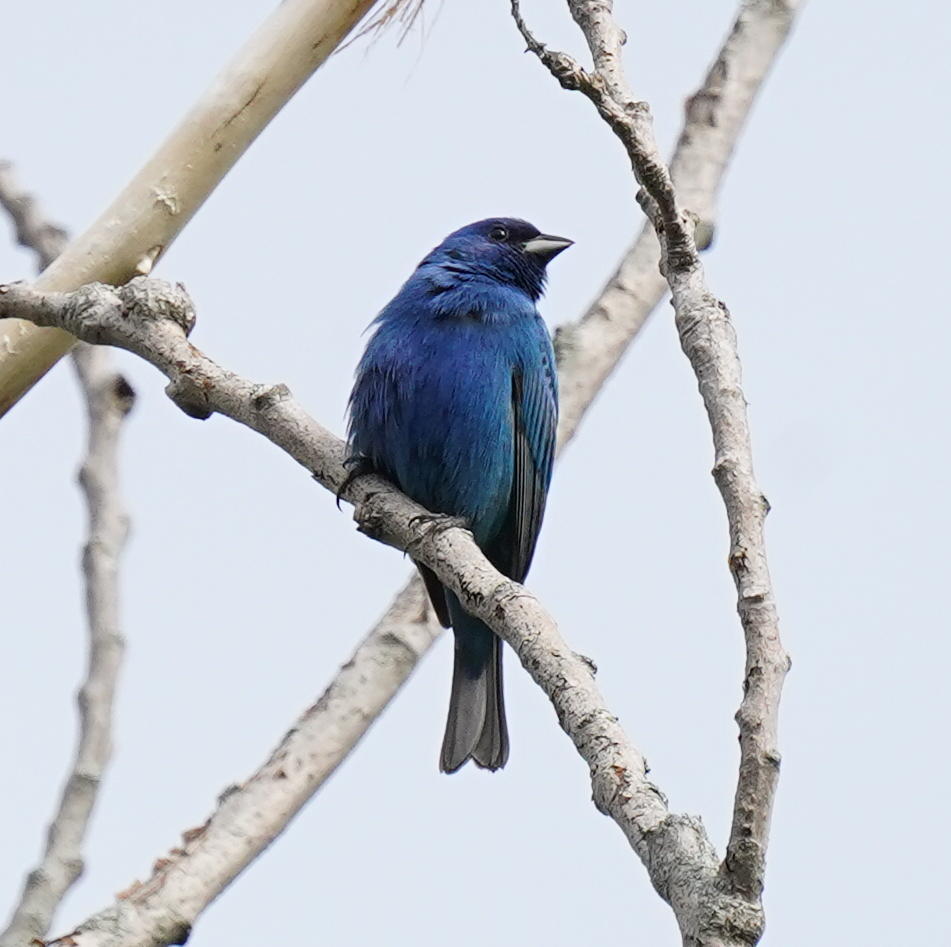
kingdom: Animalia
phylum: Chordata
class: Aves
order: Passeriformes
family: Cardinalidae
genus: Passerina
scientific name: Passerina cyanea
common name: Indigo bunting
